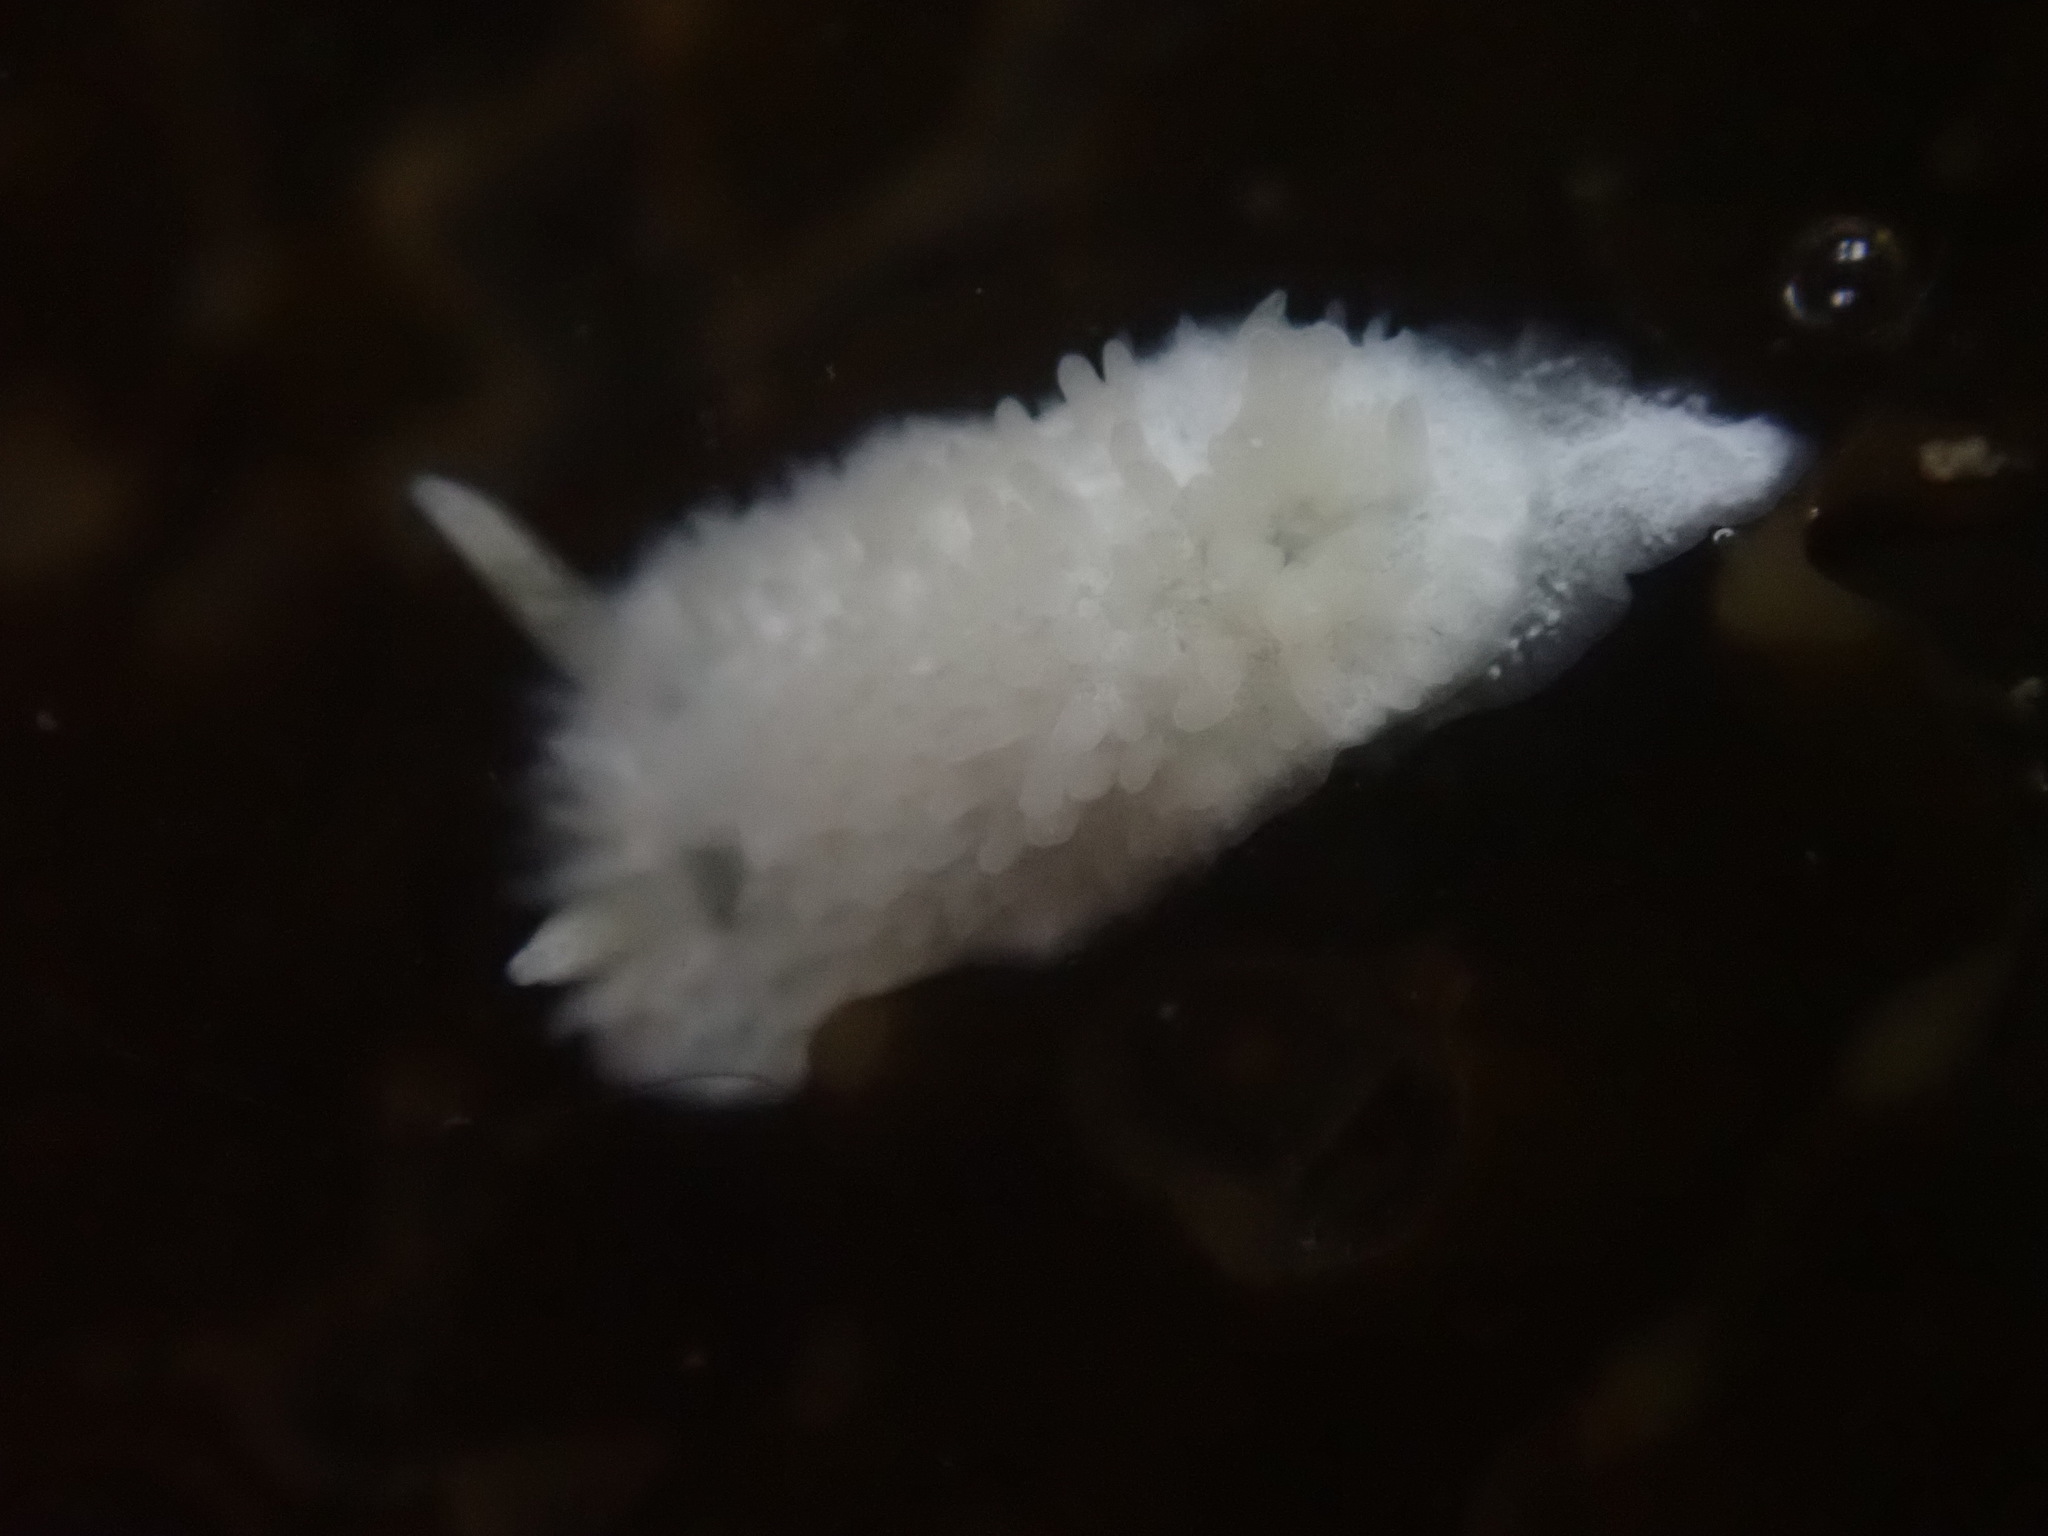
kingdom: Animalia
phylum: Mollusca
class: Gastropoda
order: Nudibranchia
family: Calycidorididae
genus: Diaphorodoris
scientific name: Diaphorodoris lirulatocauda
